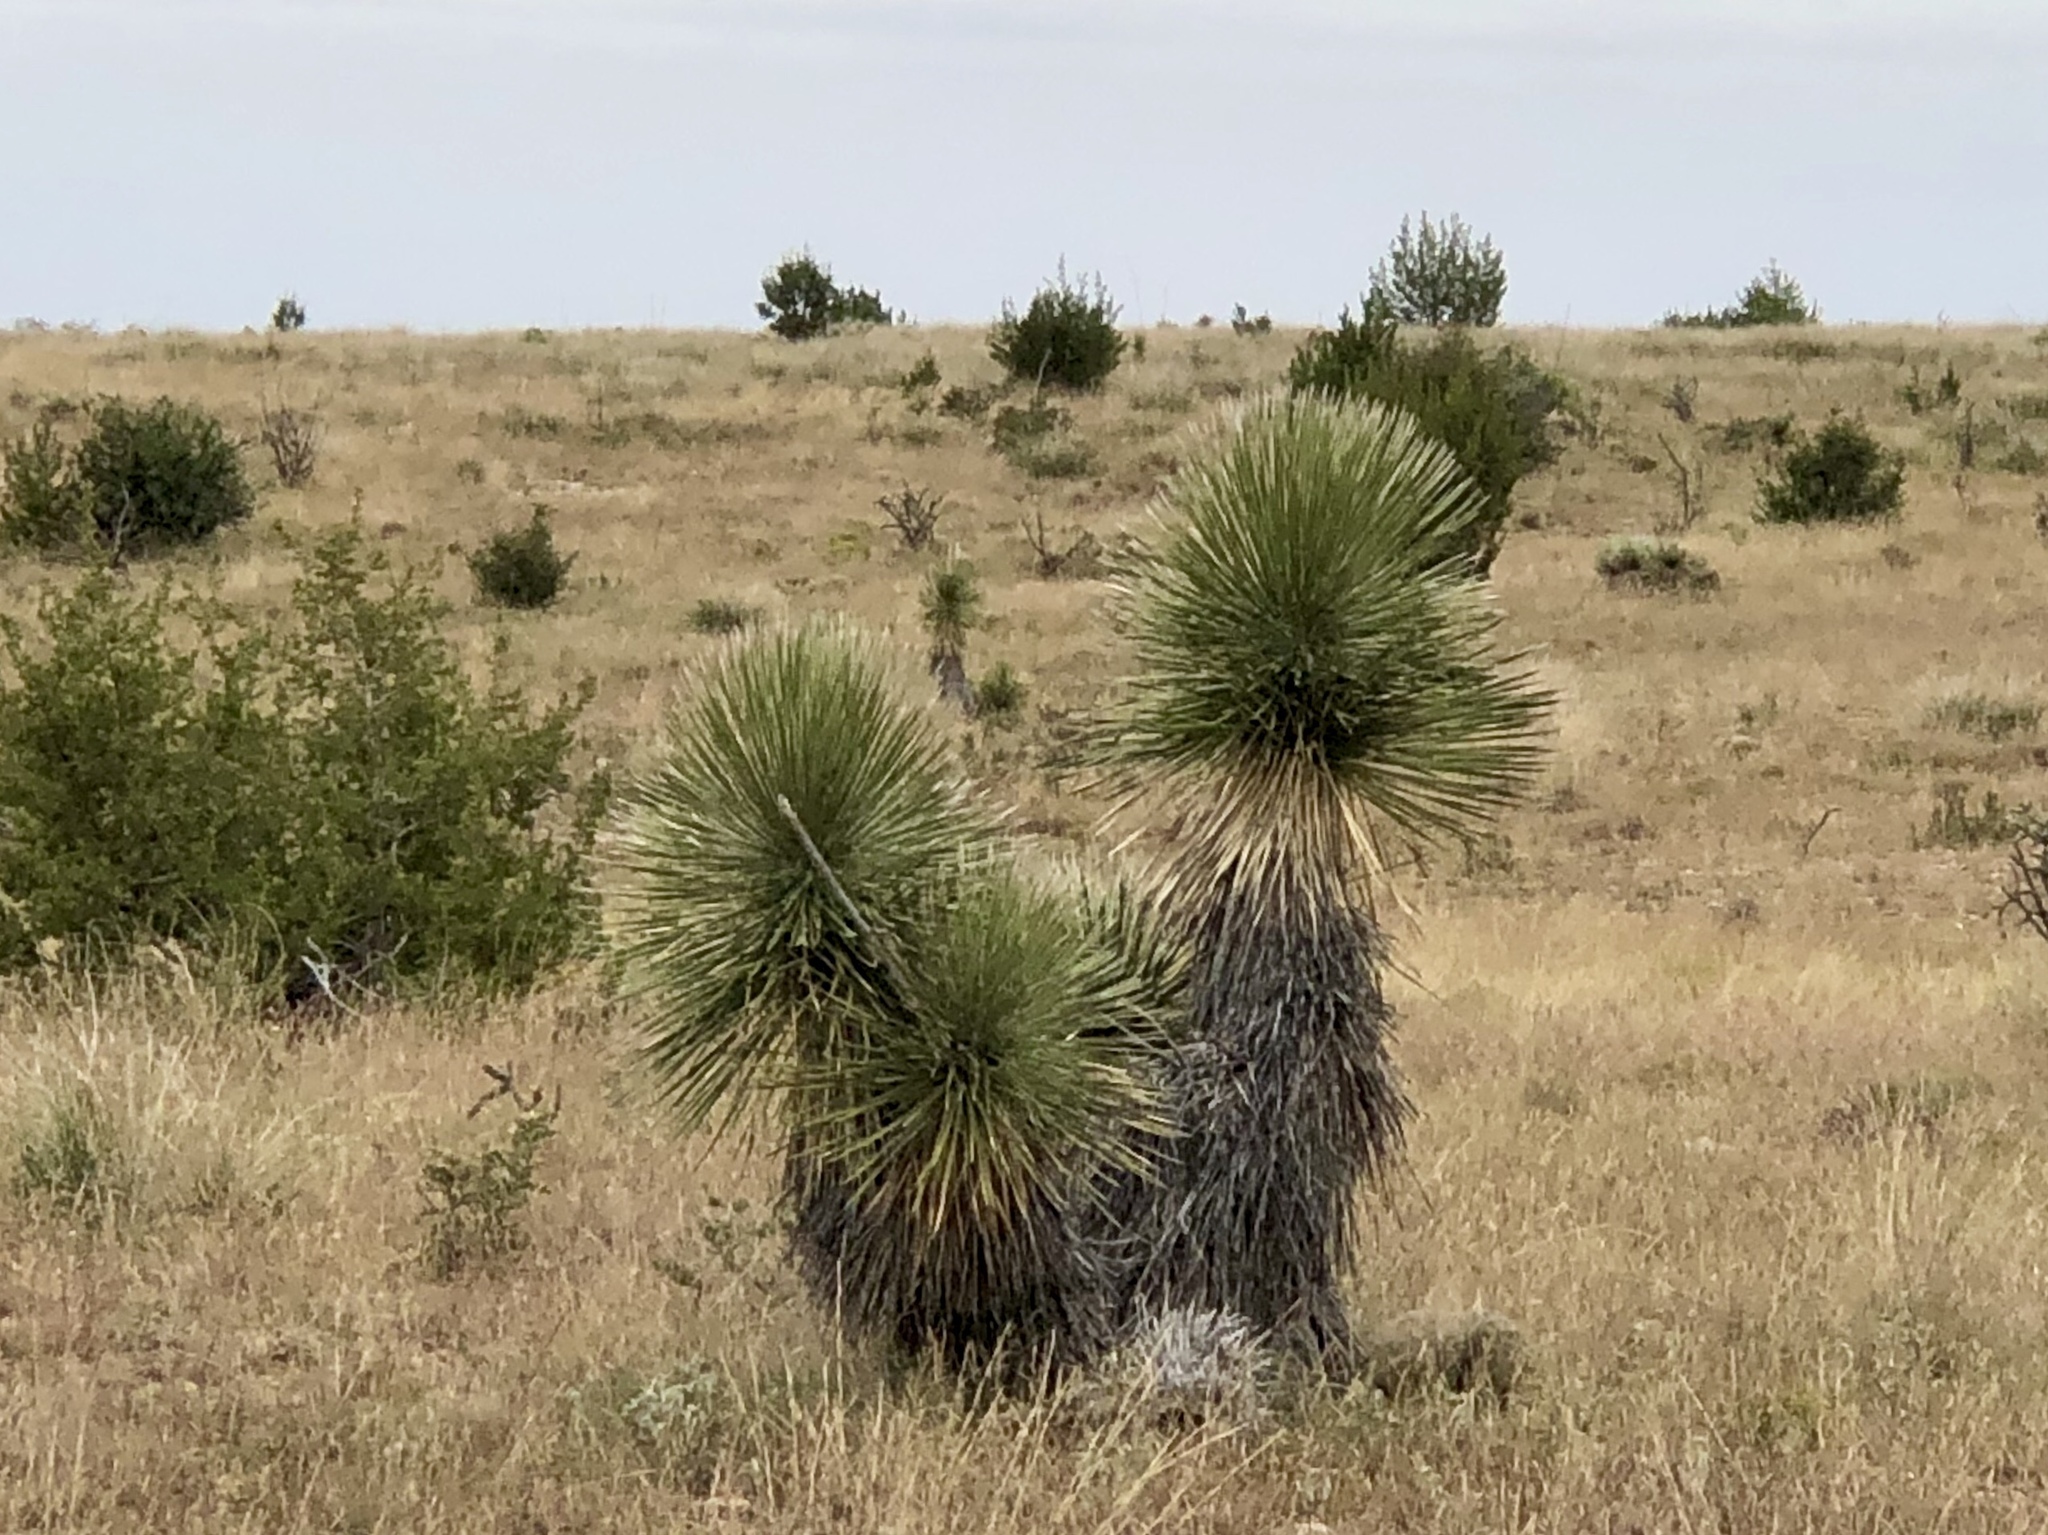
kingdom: Plantae
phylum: Tracheophyta
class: Liliopsida
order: Asparagales
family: Asparagaceae
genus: Yucca
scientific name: Yucca elata
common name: Palmella
